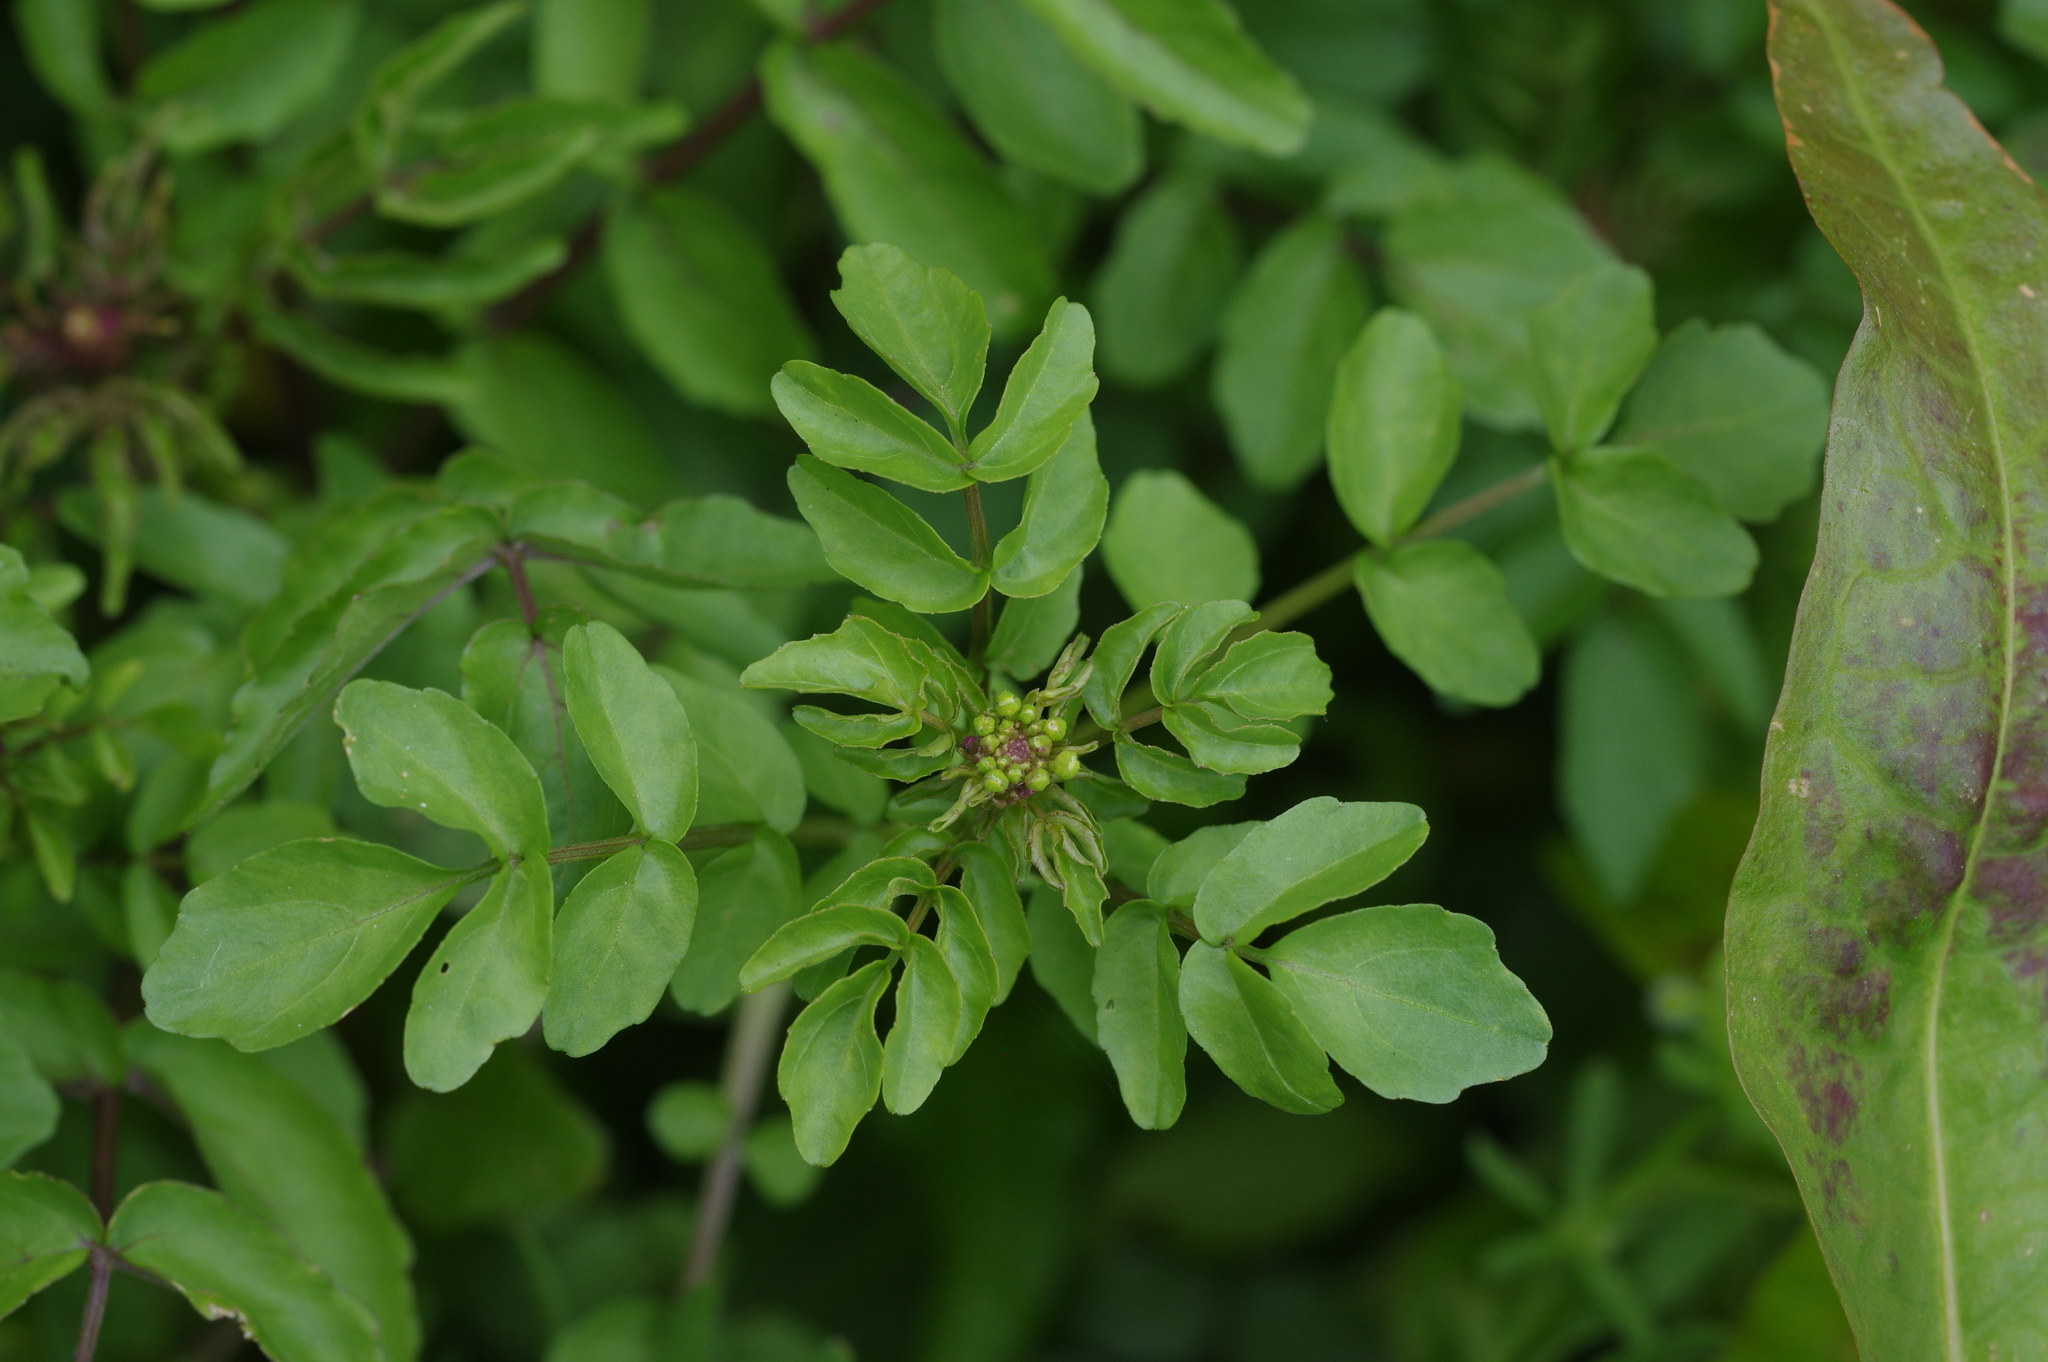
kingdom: Plantae
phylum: Tracheophyta
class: Magnoliopsida
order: Brassicales
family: Brassicaceae
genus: Nasturtium
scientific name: Nasturtium officinale
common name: Watercress
